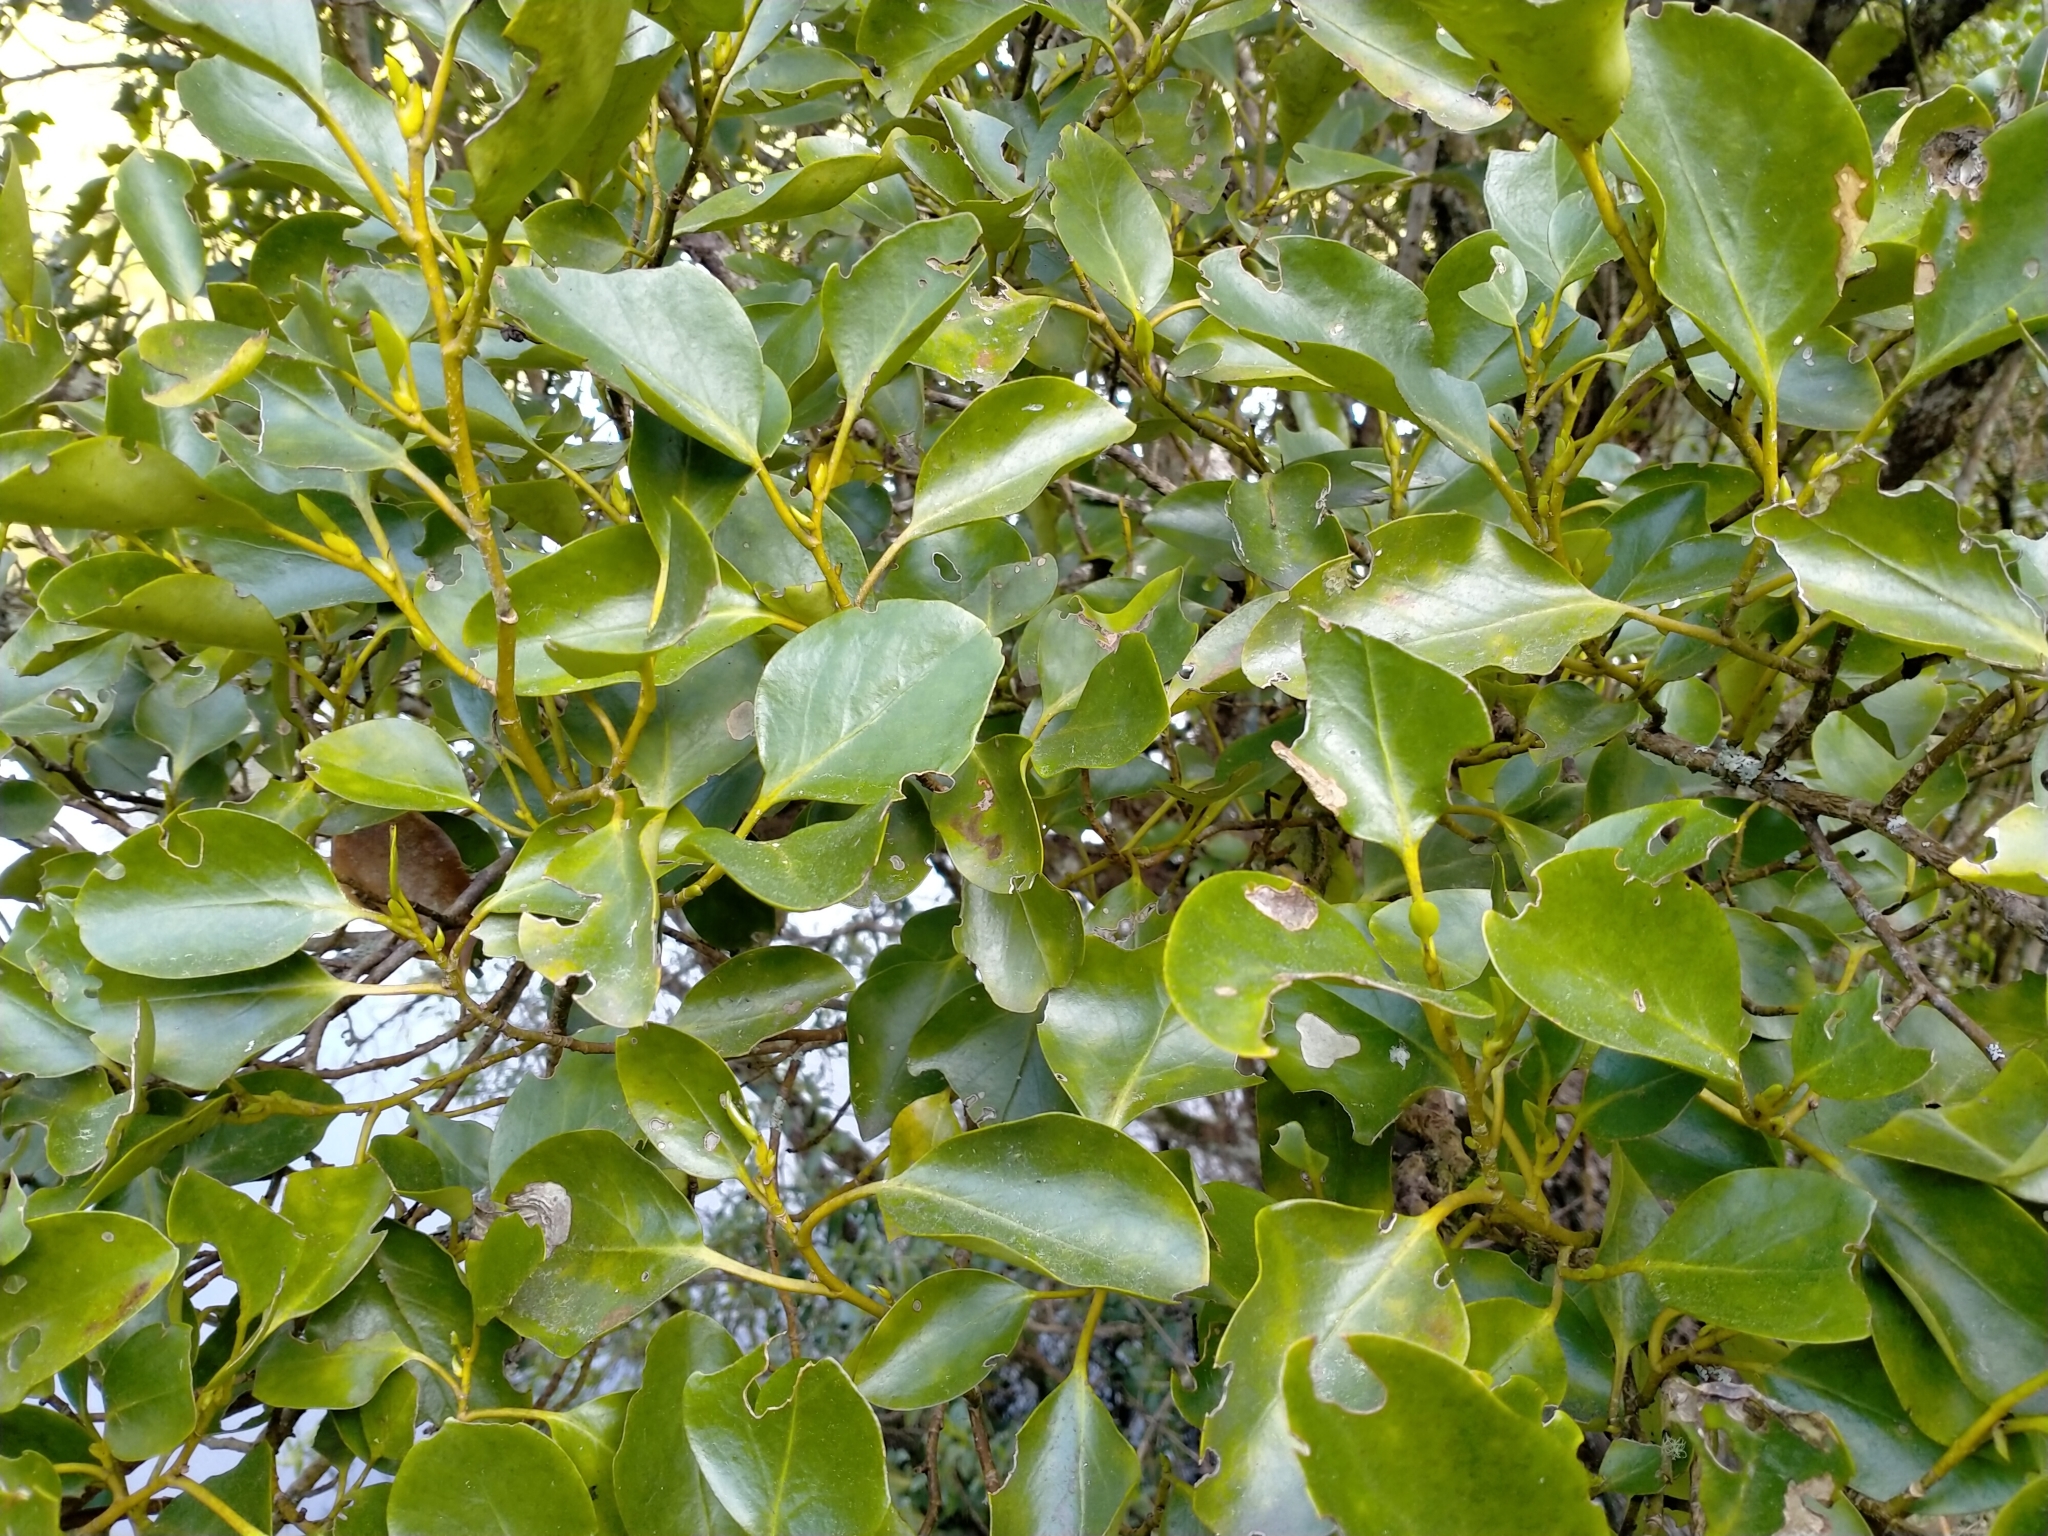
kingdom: Plantae
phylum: Tracheophyta
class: Magnoliopsida
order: Apiales
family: Griseliniaceae
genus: Griselinia
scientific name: Griselinia littoralis
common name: New zealand broadleaf
